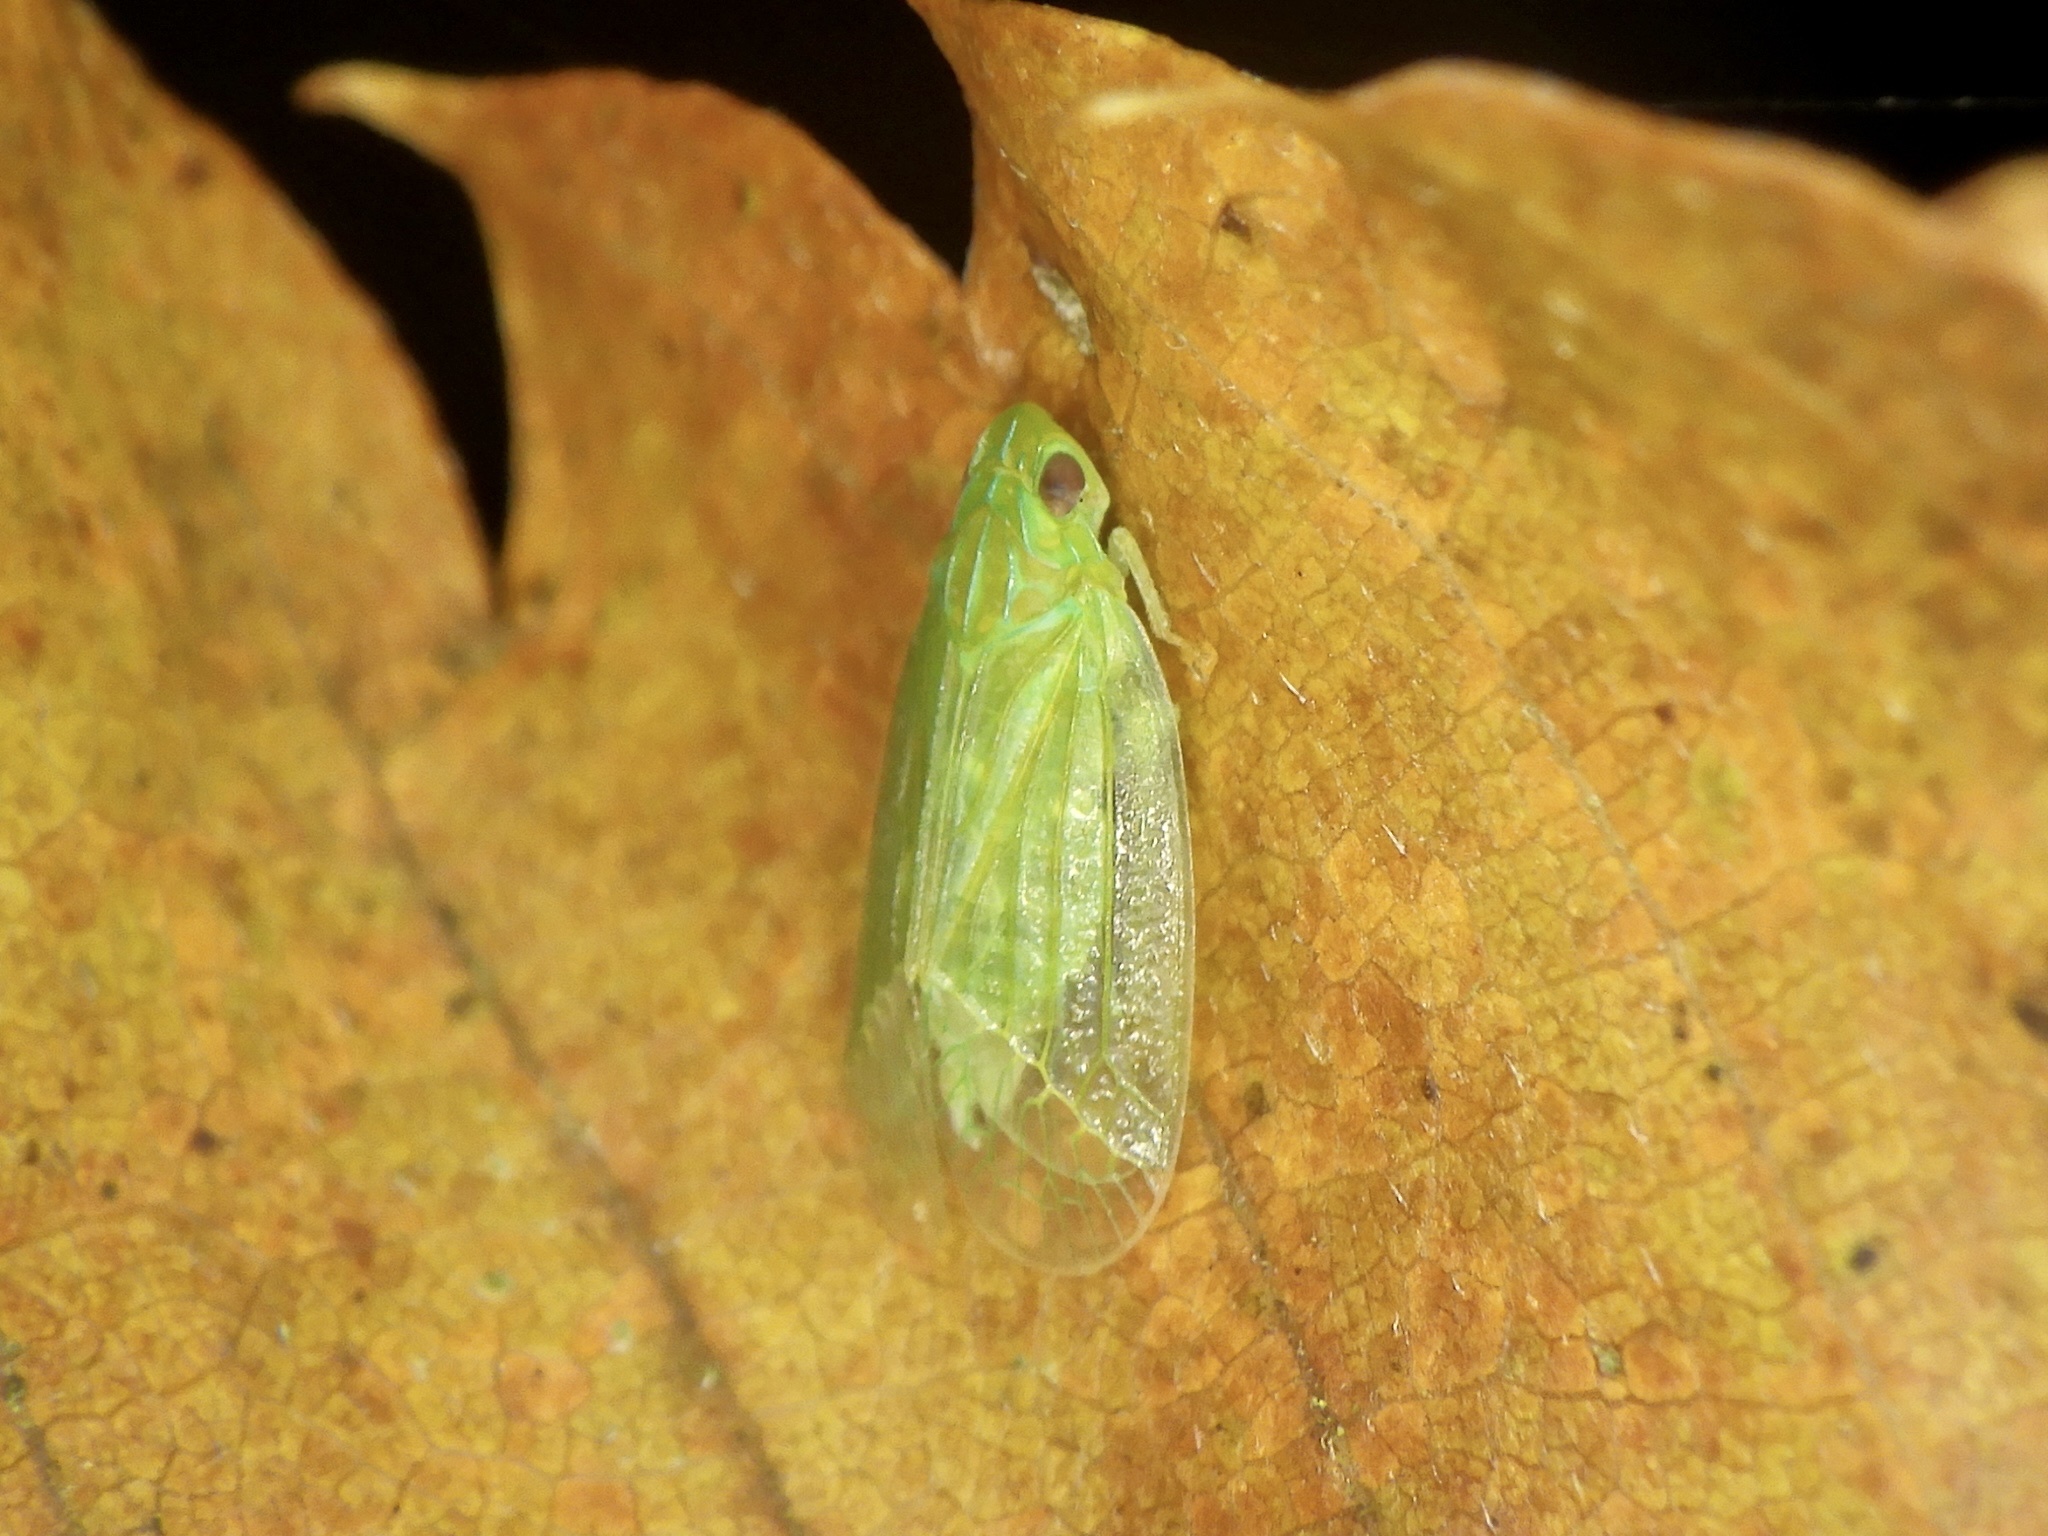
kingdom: Animalia
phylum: Arthropoda
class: Insecta
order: Hemiptera
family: Tropiduchidae
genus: Kallitaxila
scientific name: Kallitaxila sinica
